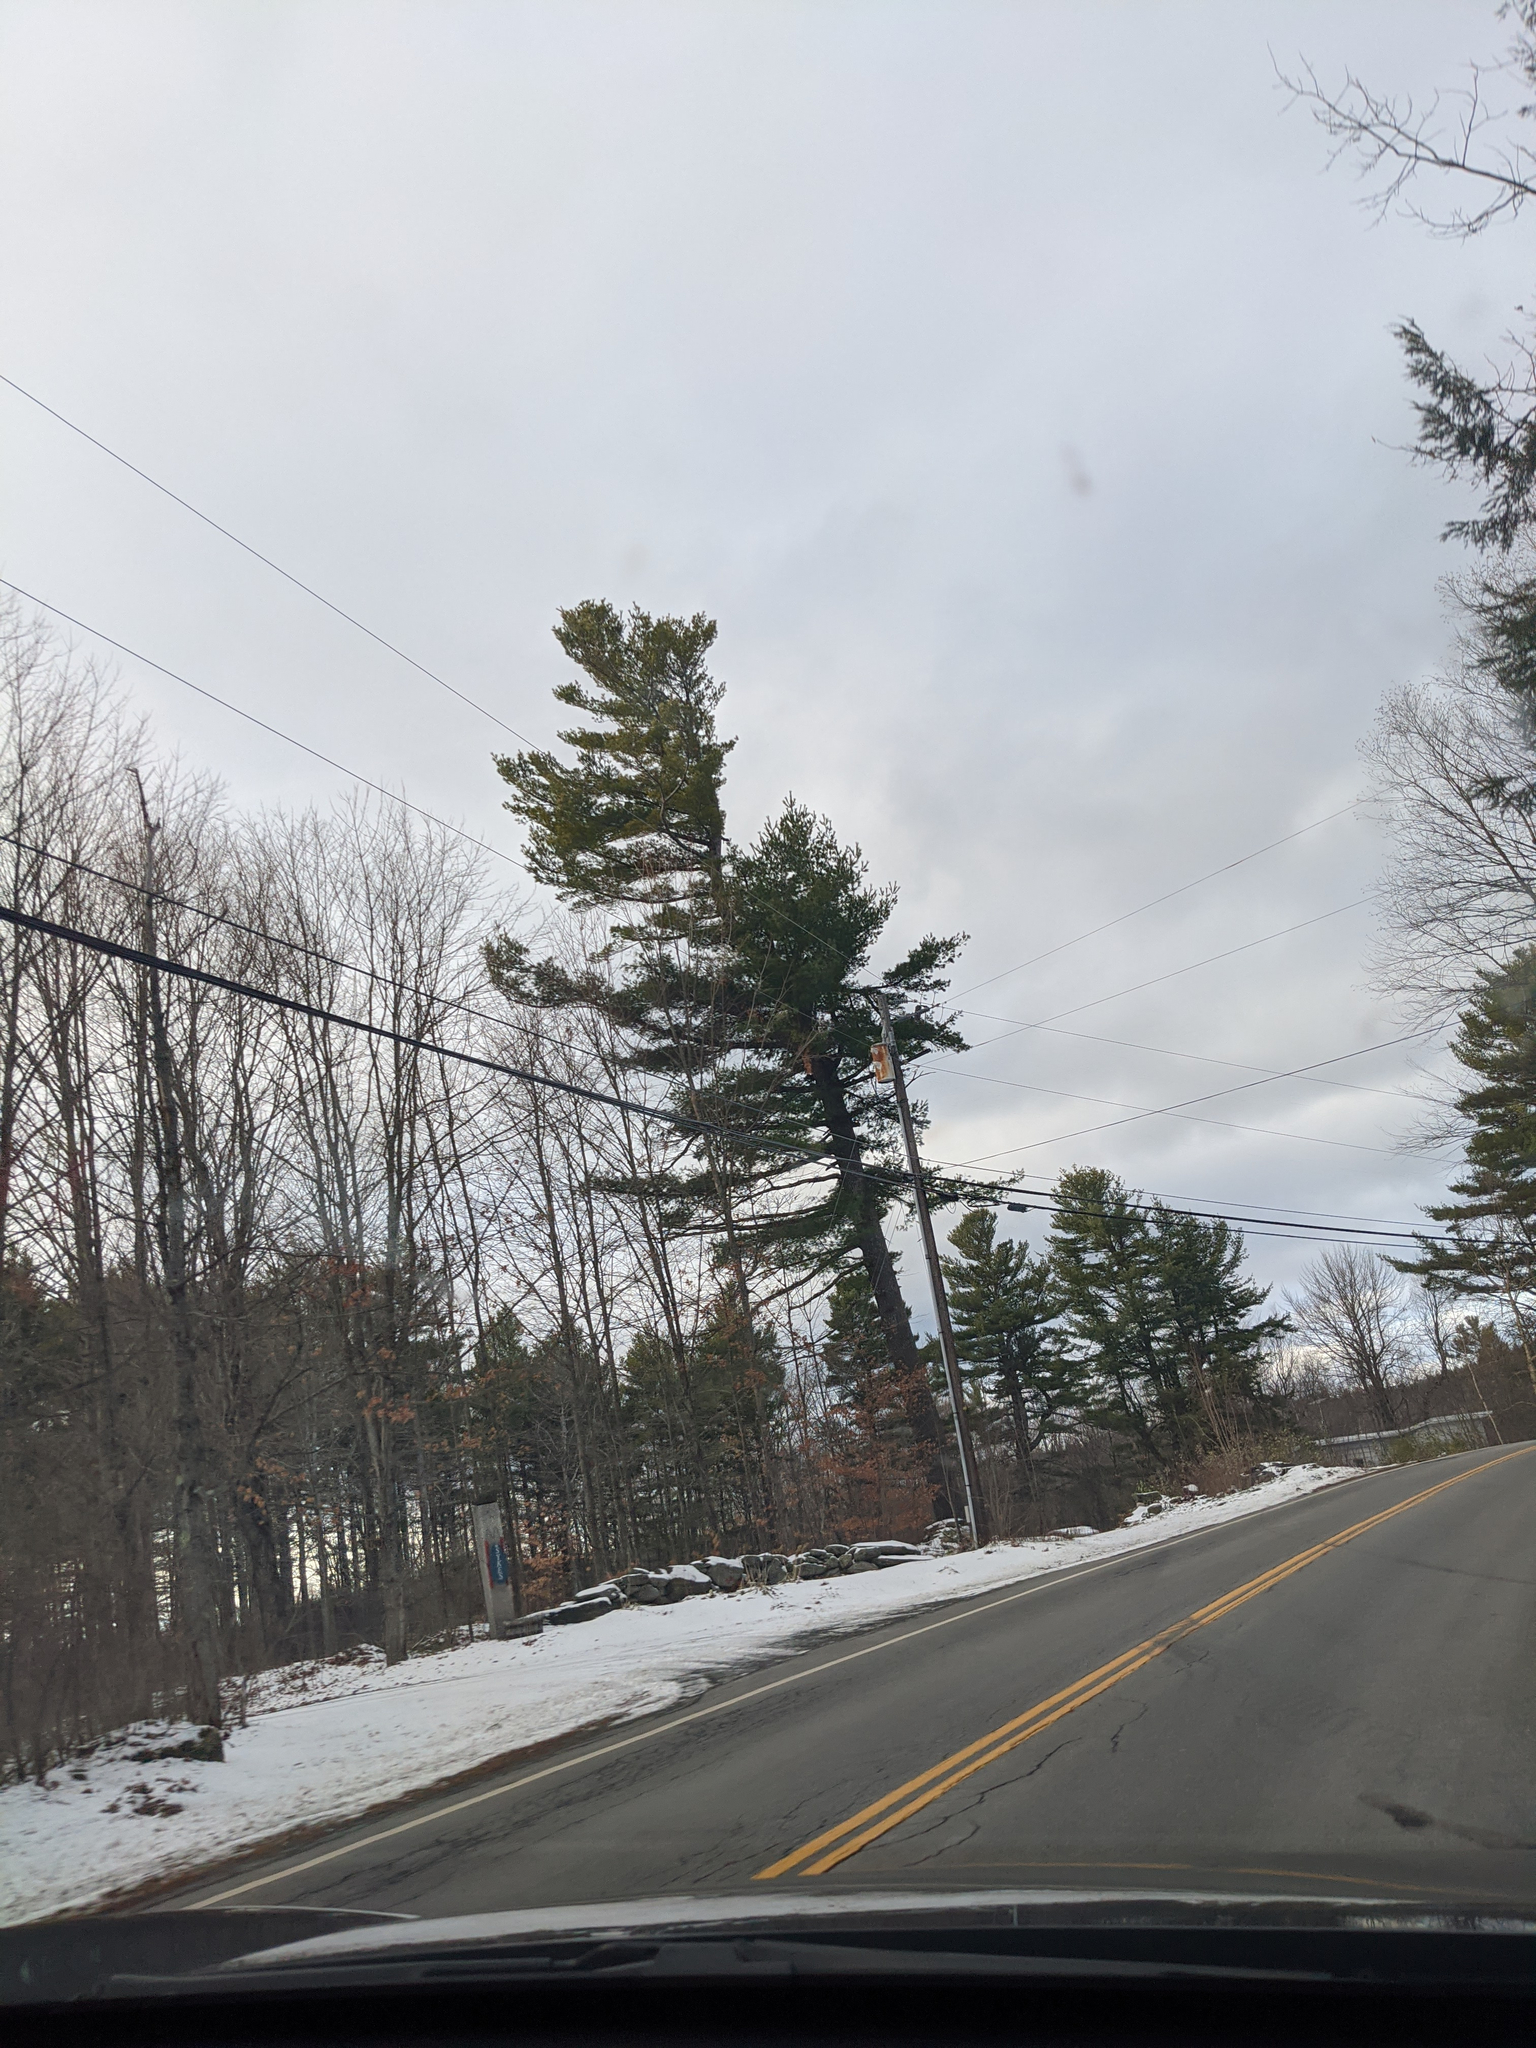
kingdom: Plantae
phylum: Tracheophyta
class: Pinopsida
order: Pinales
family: Pinaceae
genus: Pinus
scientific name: Pinus strobus
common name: Weymouth pine
